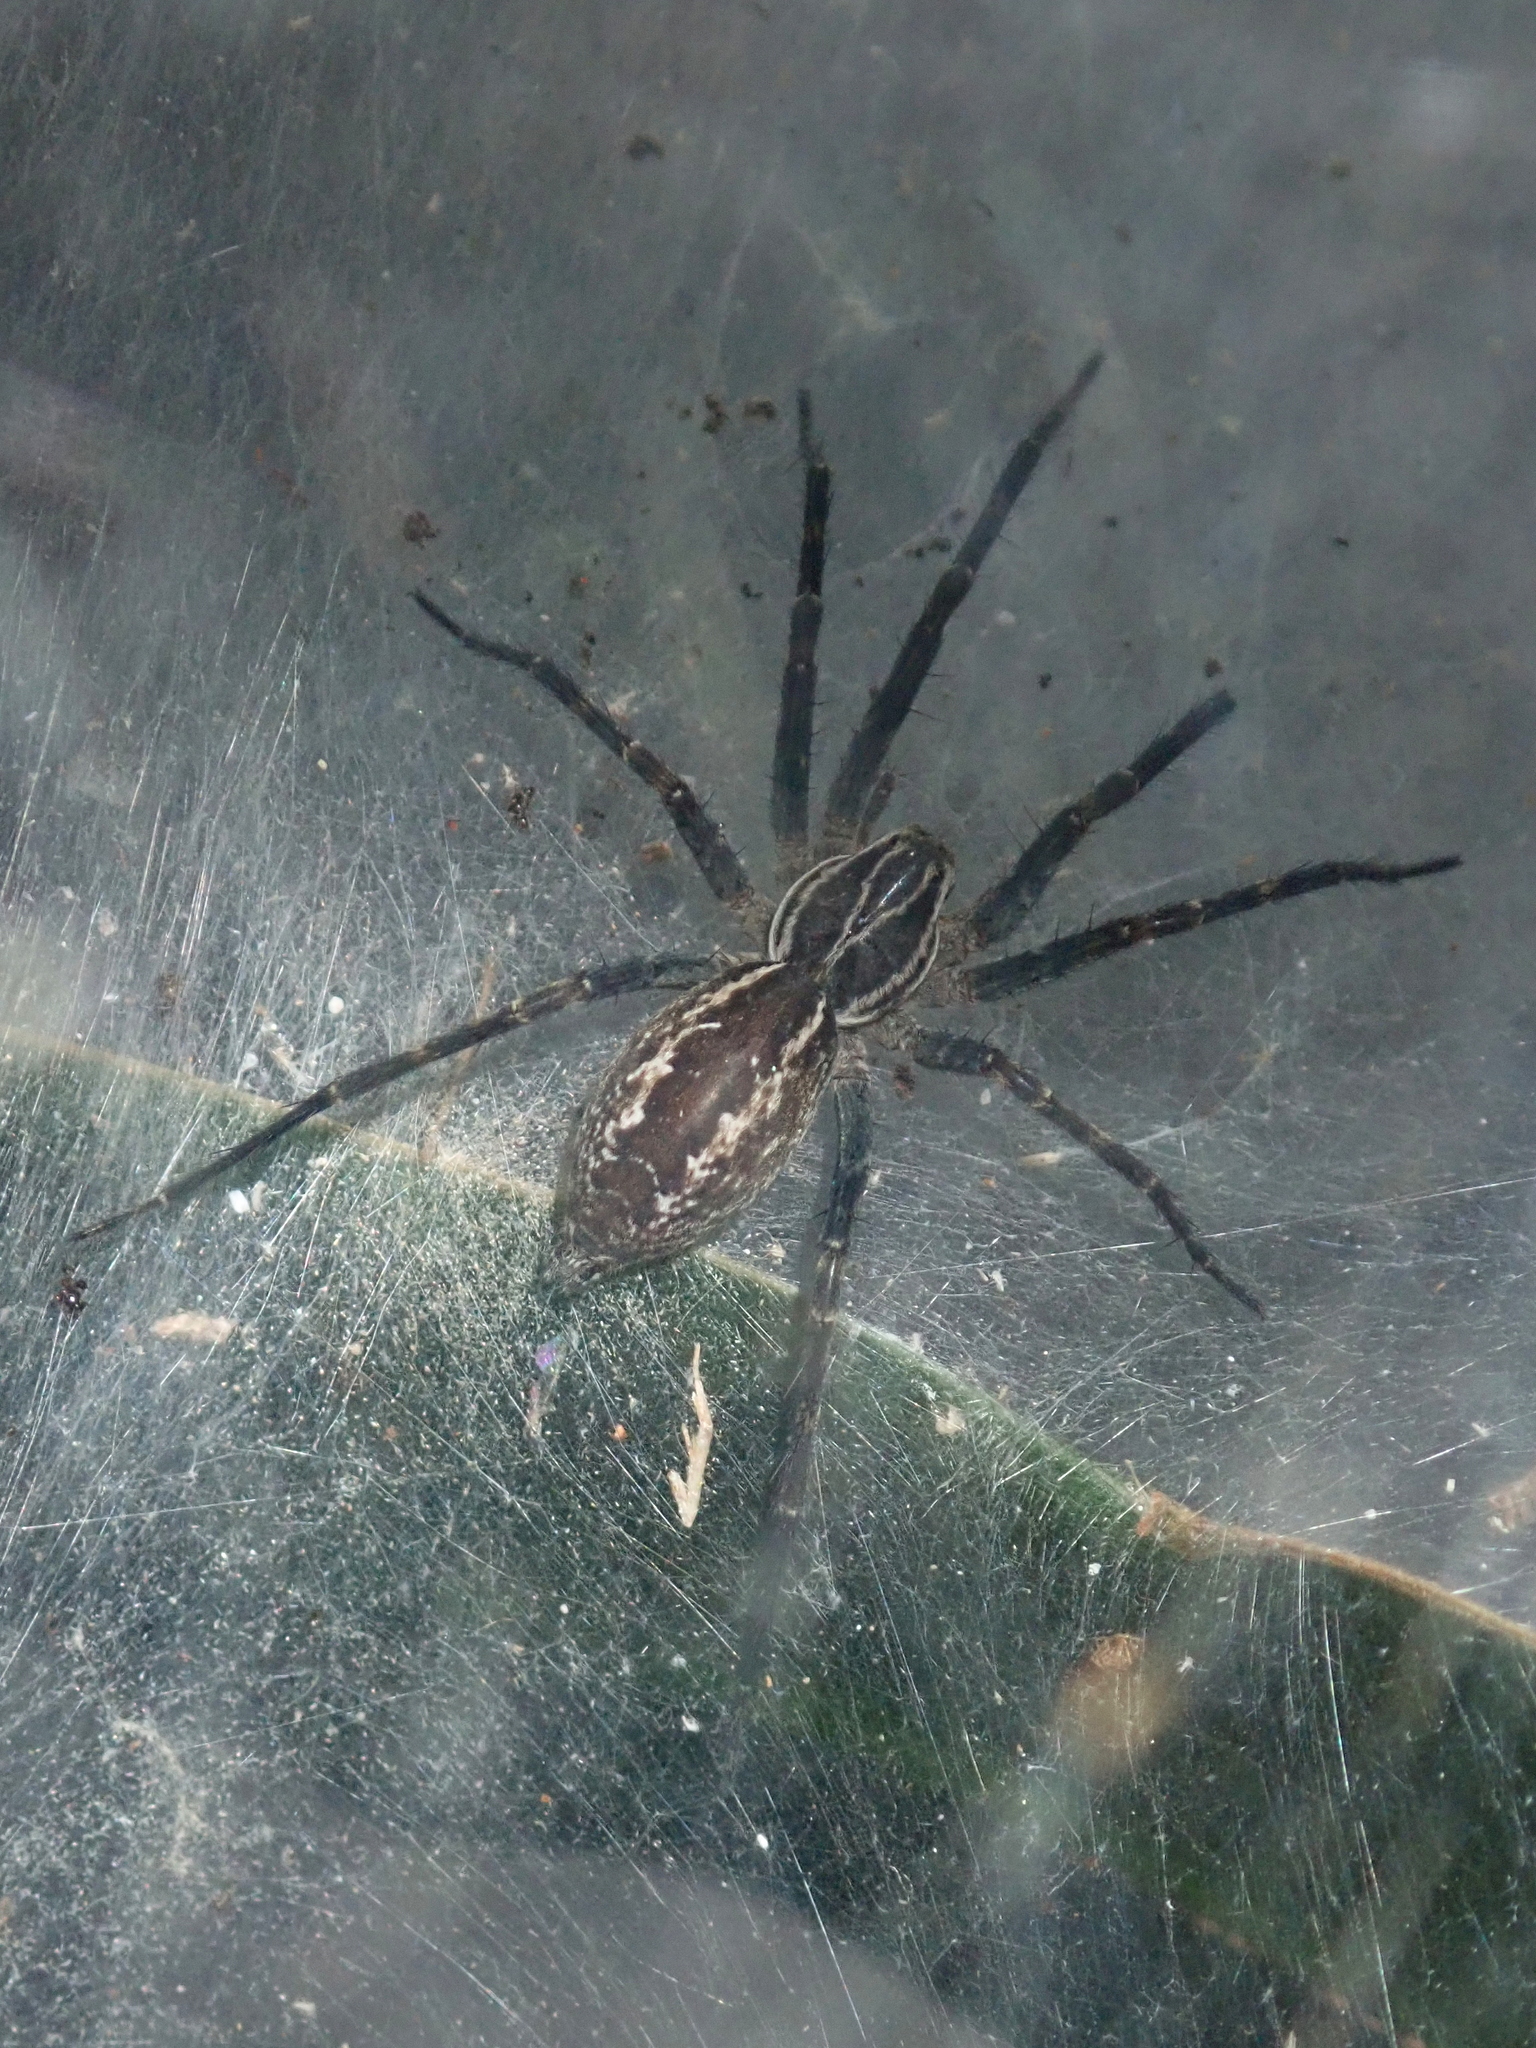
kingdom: Animalia
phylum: Arthropoda
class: Arachnida
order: Araneae
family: Lycosidae
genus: Aglaoctenus
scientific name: Aglaoctenus lagotis
